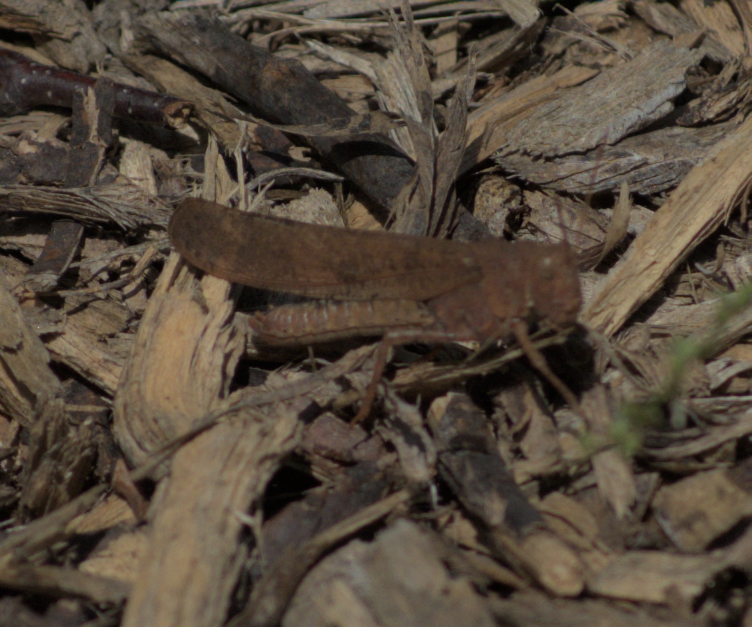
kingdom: Animalia
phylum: Arthropoda
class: Insecta
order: Orthoptera
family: Acrididae
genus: Dissosteira
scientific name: Dissosteira carolina
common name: Carolina grasshopper
